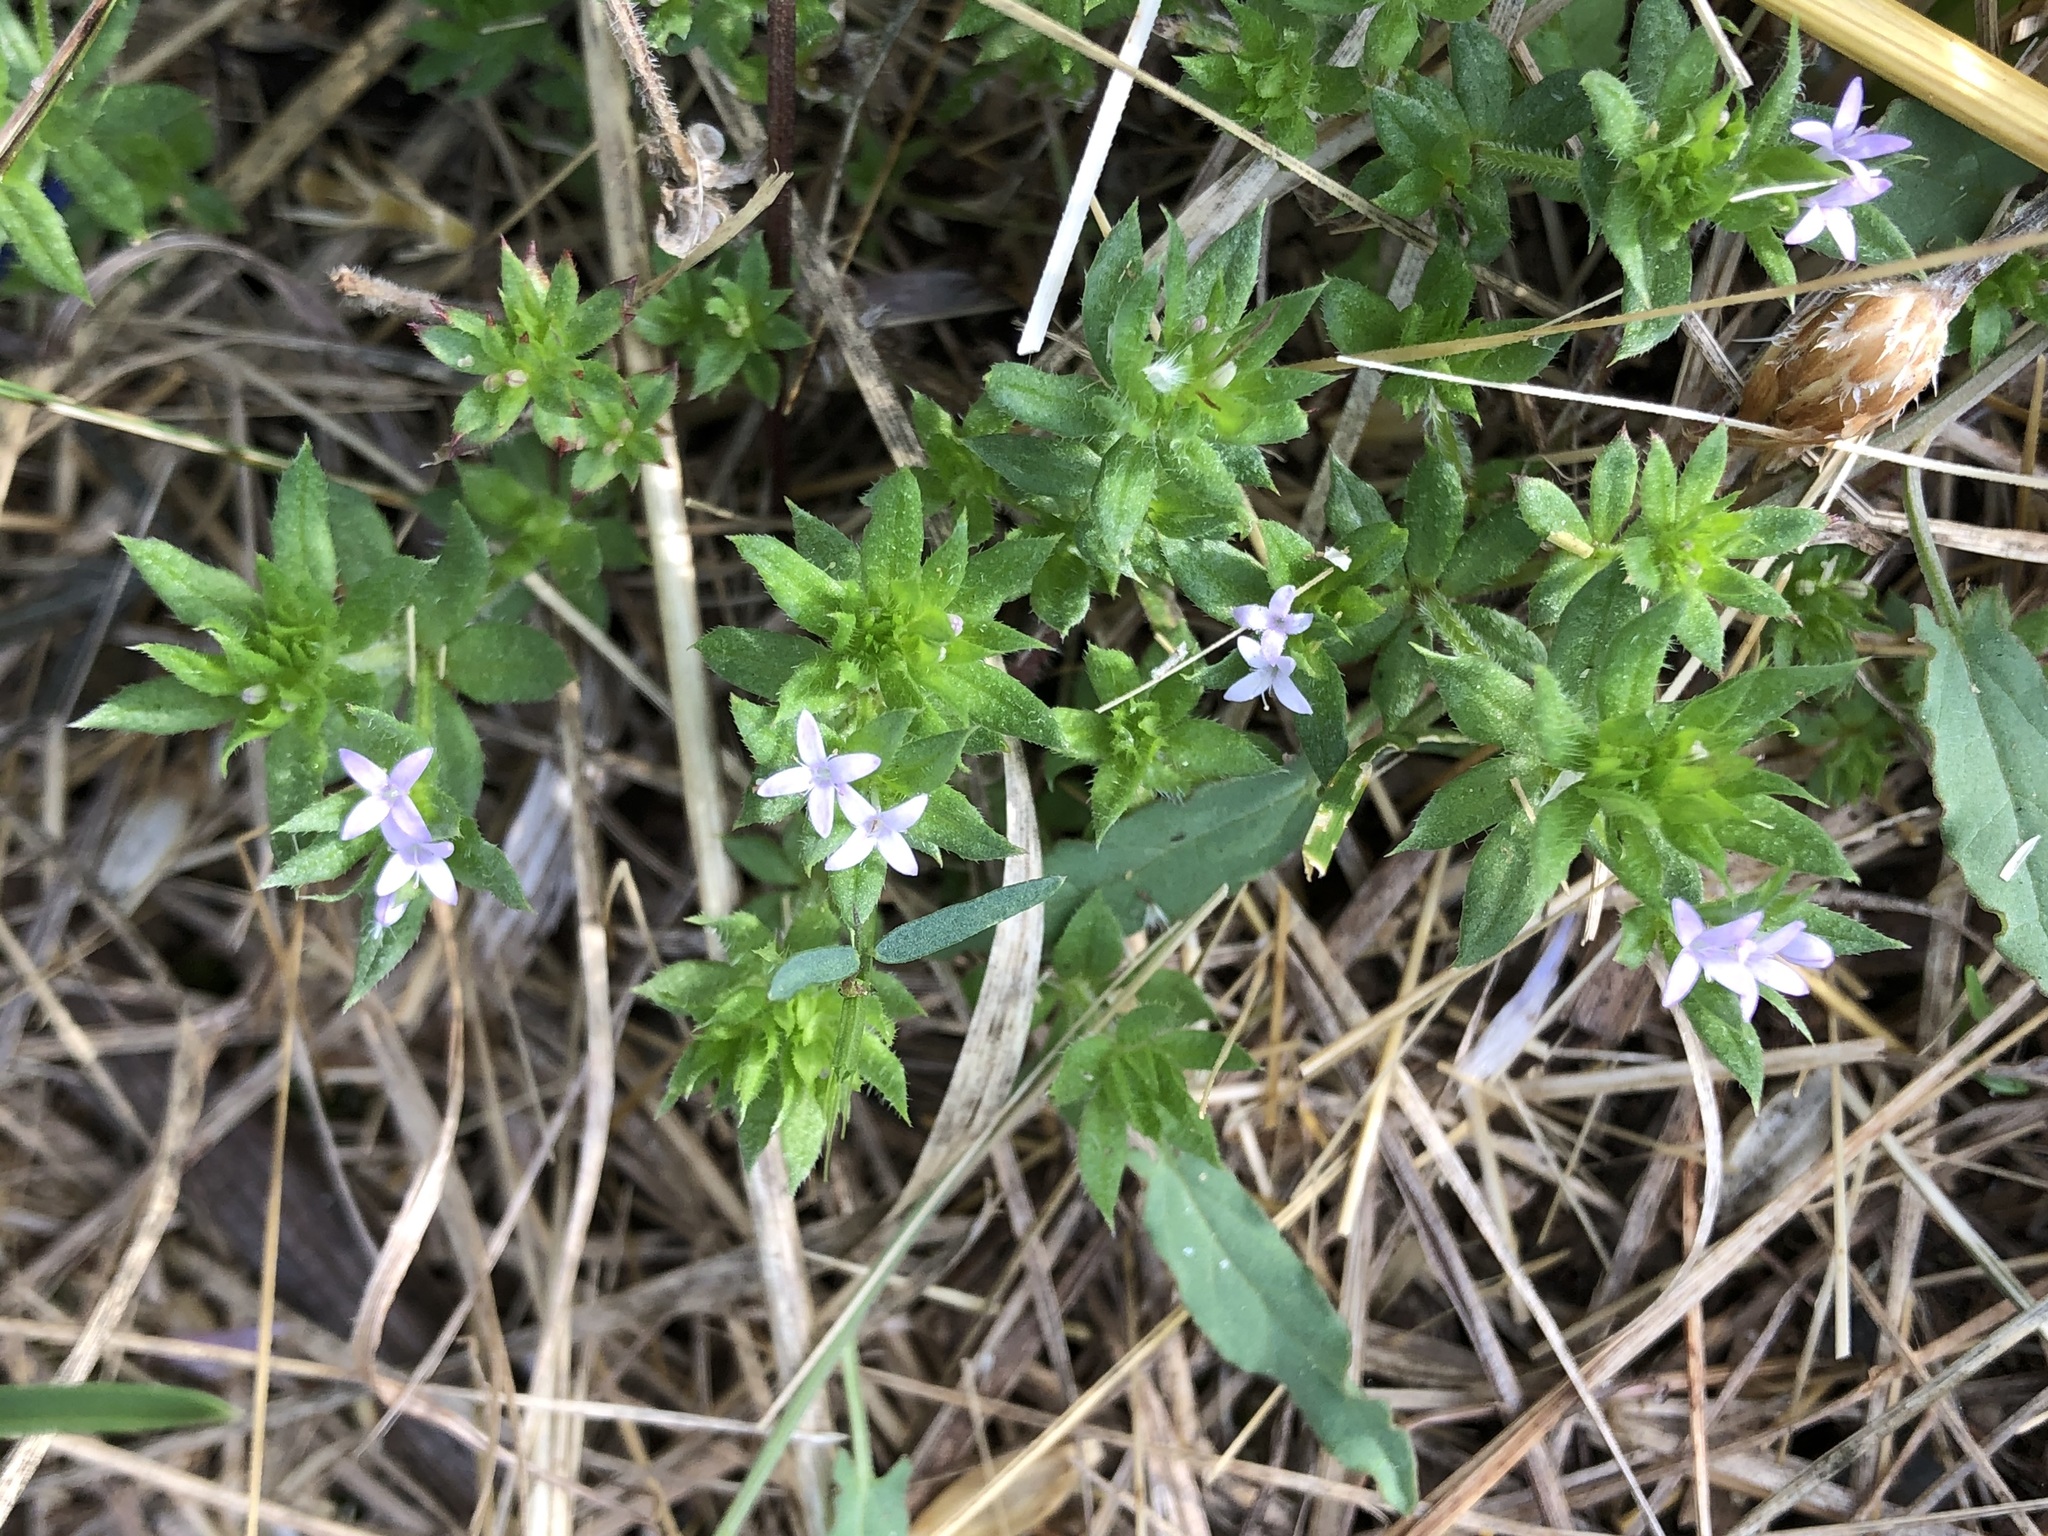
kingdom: Plantae
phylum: Tracheophyta
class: Magnoliopsida
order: Gentianales
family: Rubiaceae
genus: Sherardia
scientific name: Sherardia arvensis
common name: Field madder
